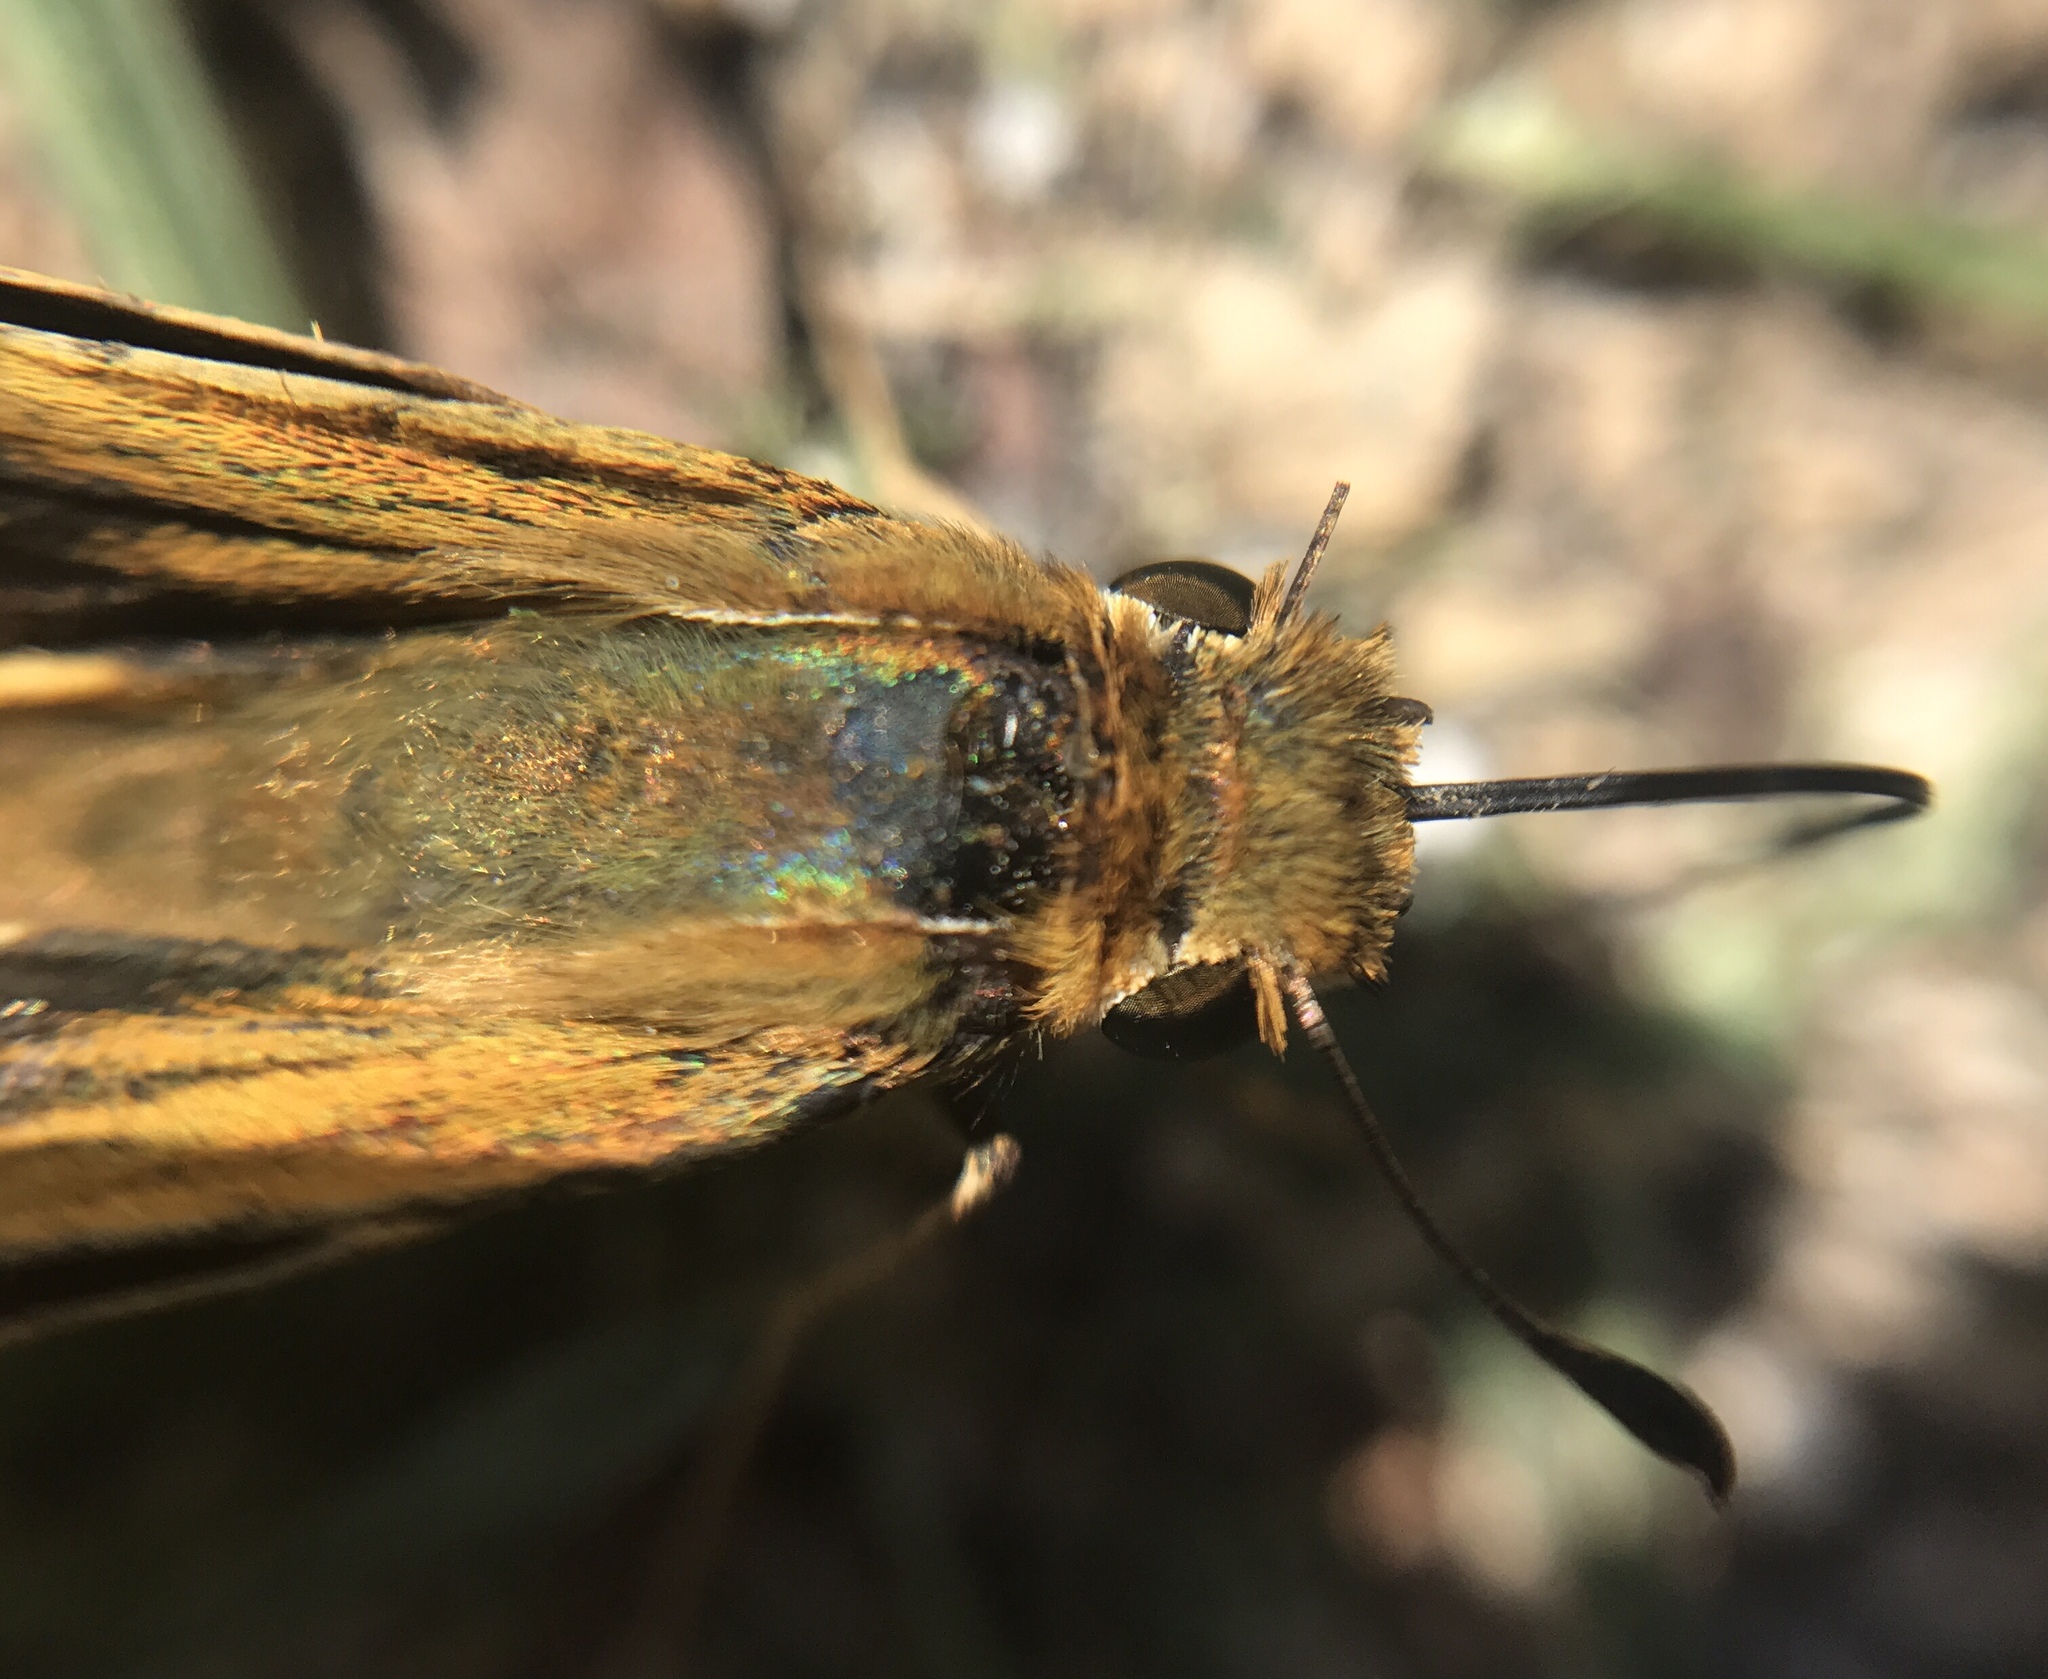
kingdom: Animalia
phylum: Arthropoda
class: Insecta
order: Lepidoptera
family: Hesperiidae
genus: Atalopedes
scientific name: Atalopedes
